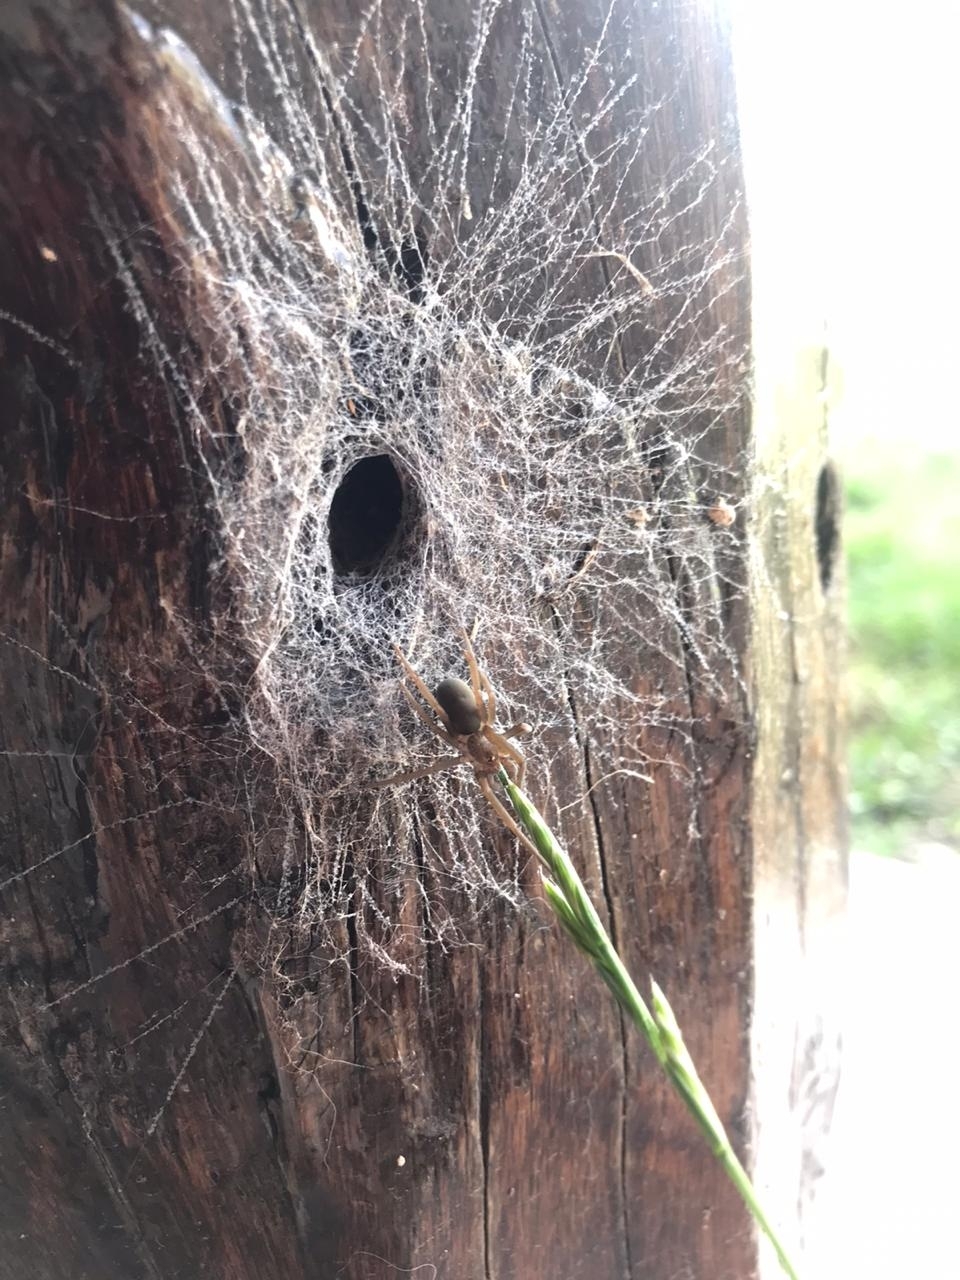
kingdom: Animalia
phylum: Arthropoda
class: Arachnida
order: Araneae
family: Filistatidae
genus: Kukulcania
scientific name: Kukulcania hibernalis
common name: Crevice weaver
